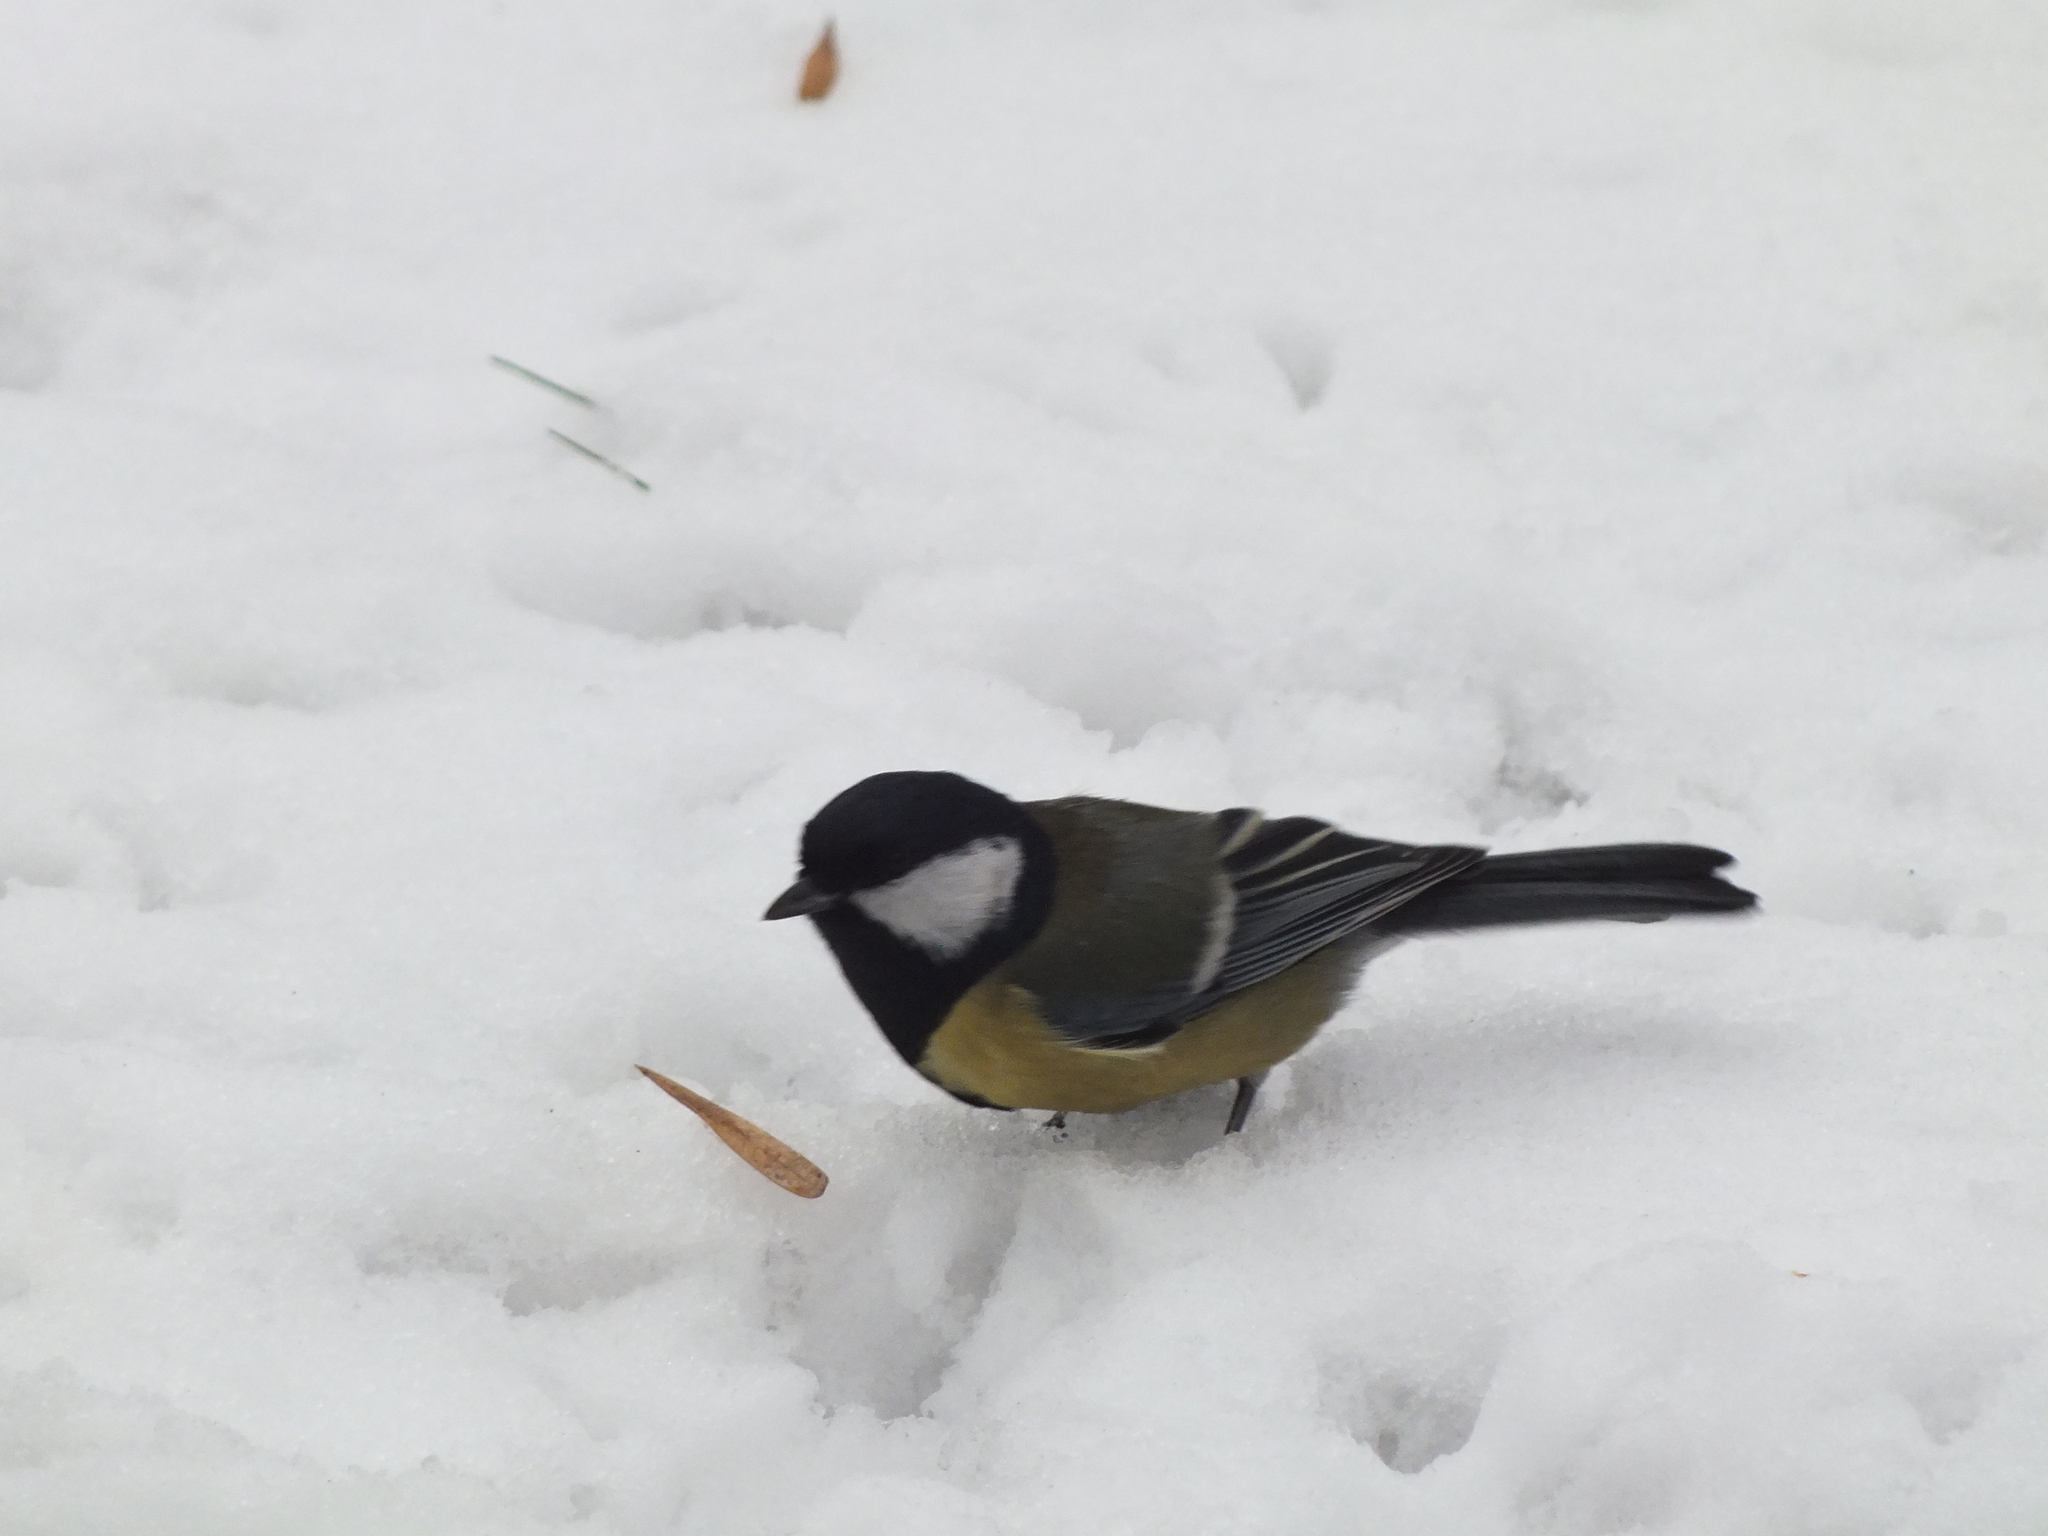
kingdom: Animalia
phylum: Chordata
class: Aves
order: Passeriformes
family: Paridae
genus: Parus
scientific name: Parus major
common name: Great tit
